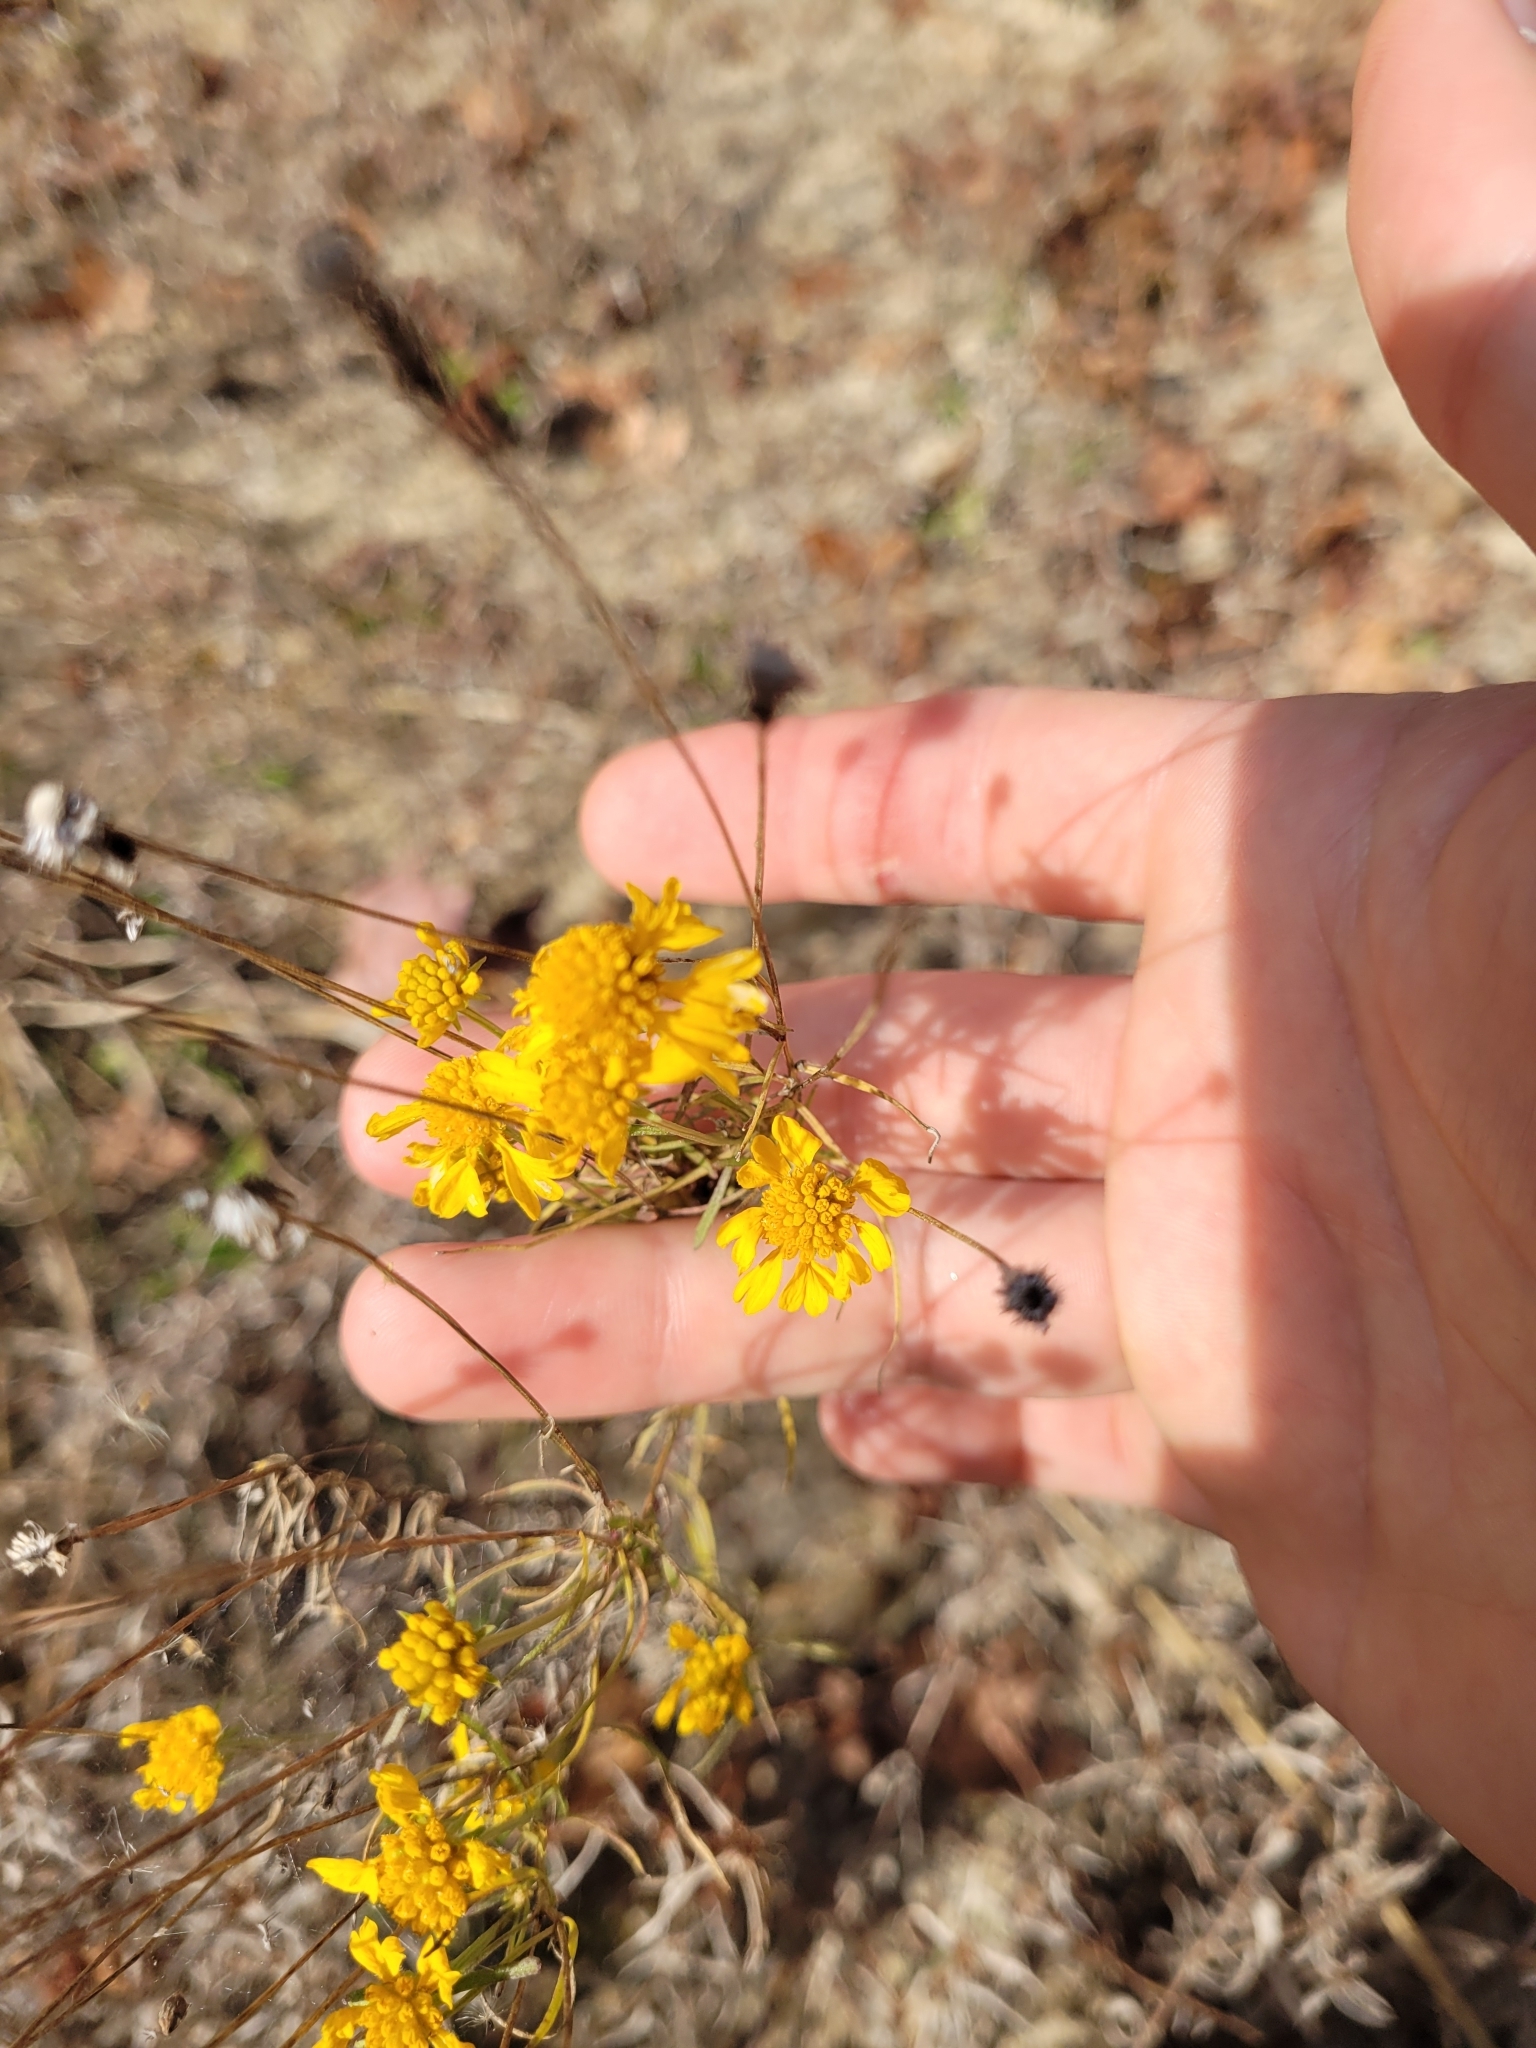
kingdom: Plantae
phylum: Tracheophyta
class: Magnoliopsida
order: Asterales
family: Asteraceae
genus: Helenium
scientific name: Helenium amarum
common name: Bitter sneezeweed
